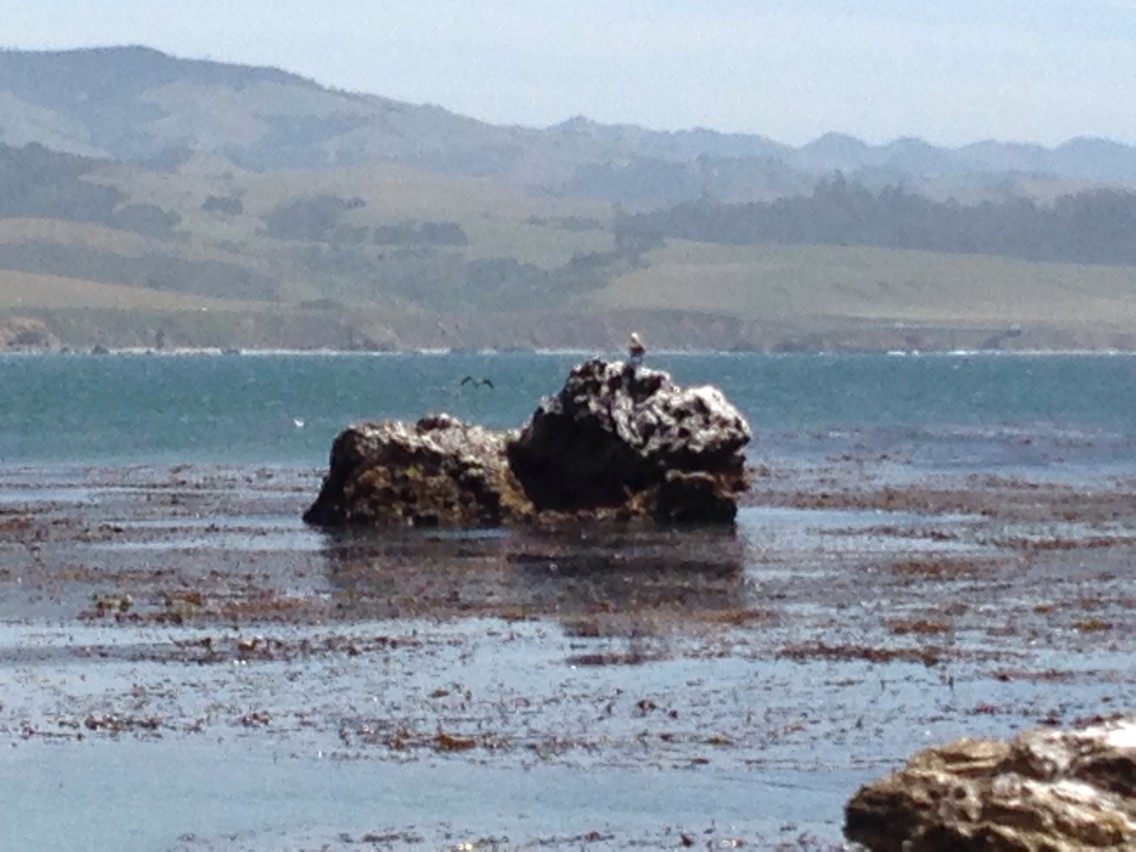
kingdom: Animalia
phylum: Chordata
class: Aves
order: Pelecaniformes
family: Pelecanidae
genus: Pelecanus
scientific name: Pelecanus occidentalis
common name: Brown pelican
